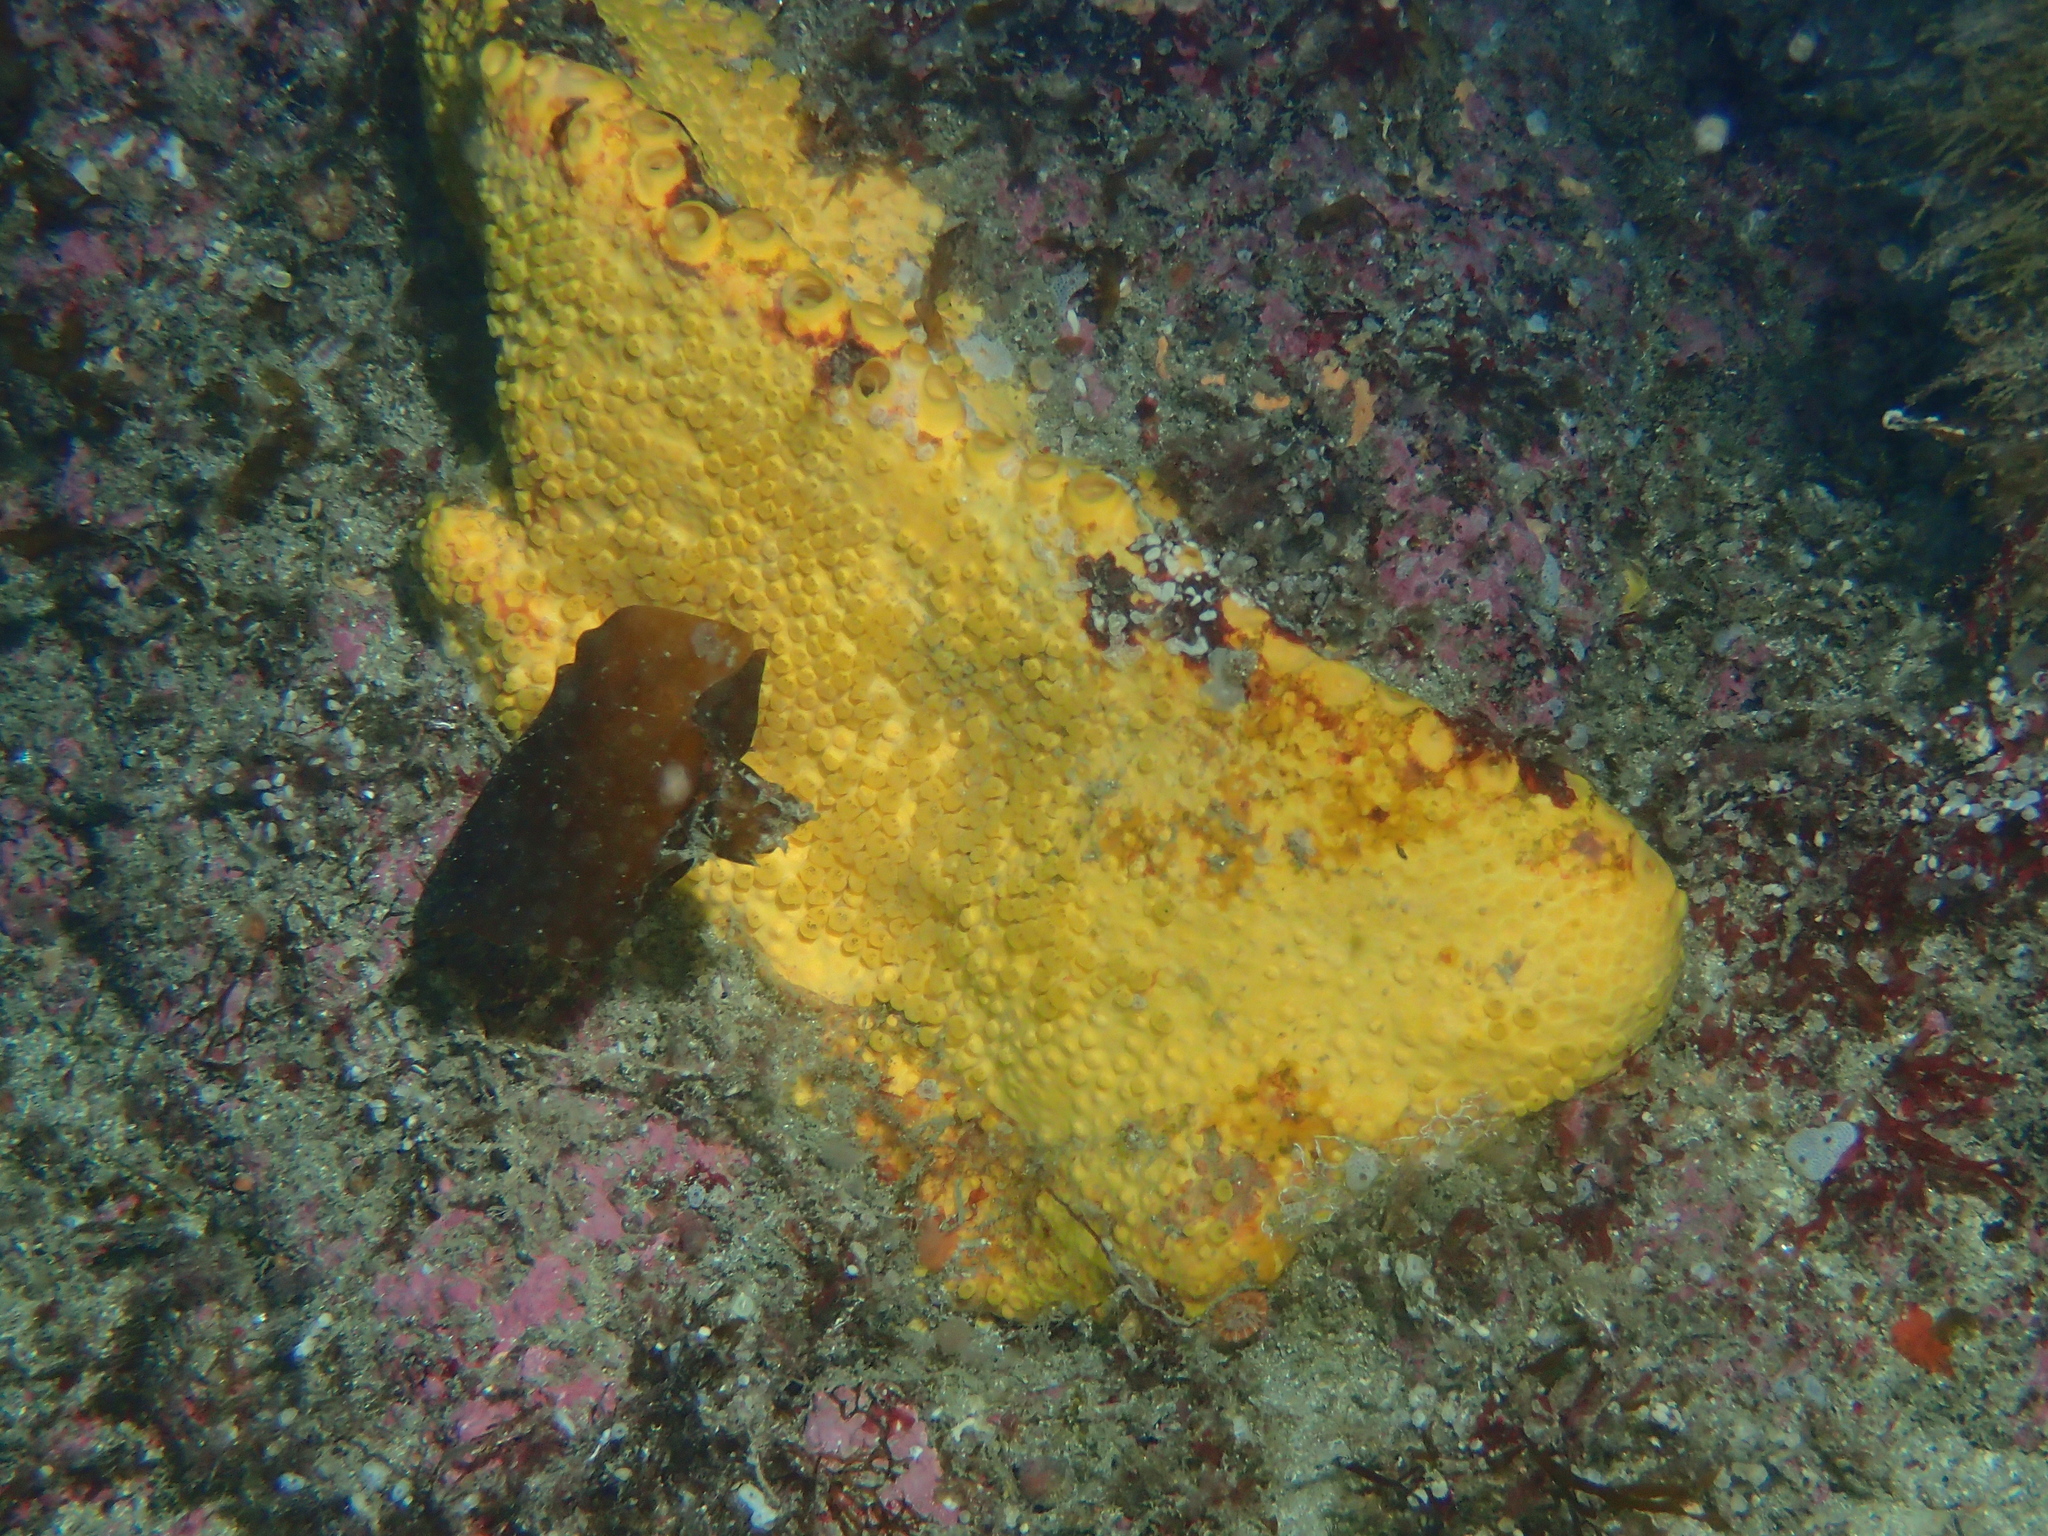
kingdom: Animalia
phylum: Porifera
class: Demospongiae
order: Clionaida
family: Clionaidae
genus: Cliona
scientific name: Cliona celata
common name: Boring sponge
